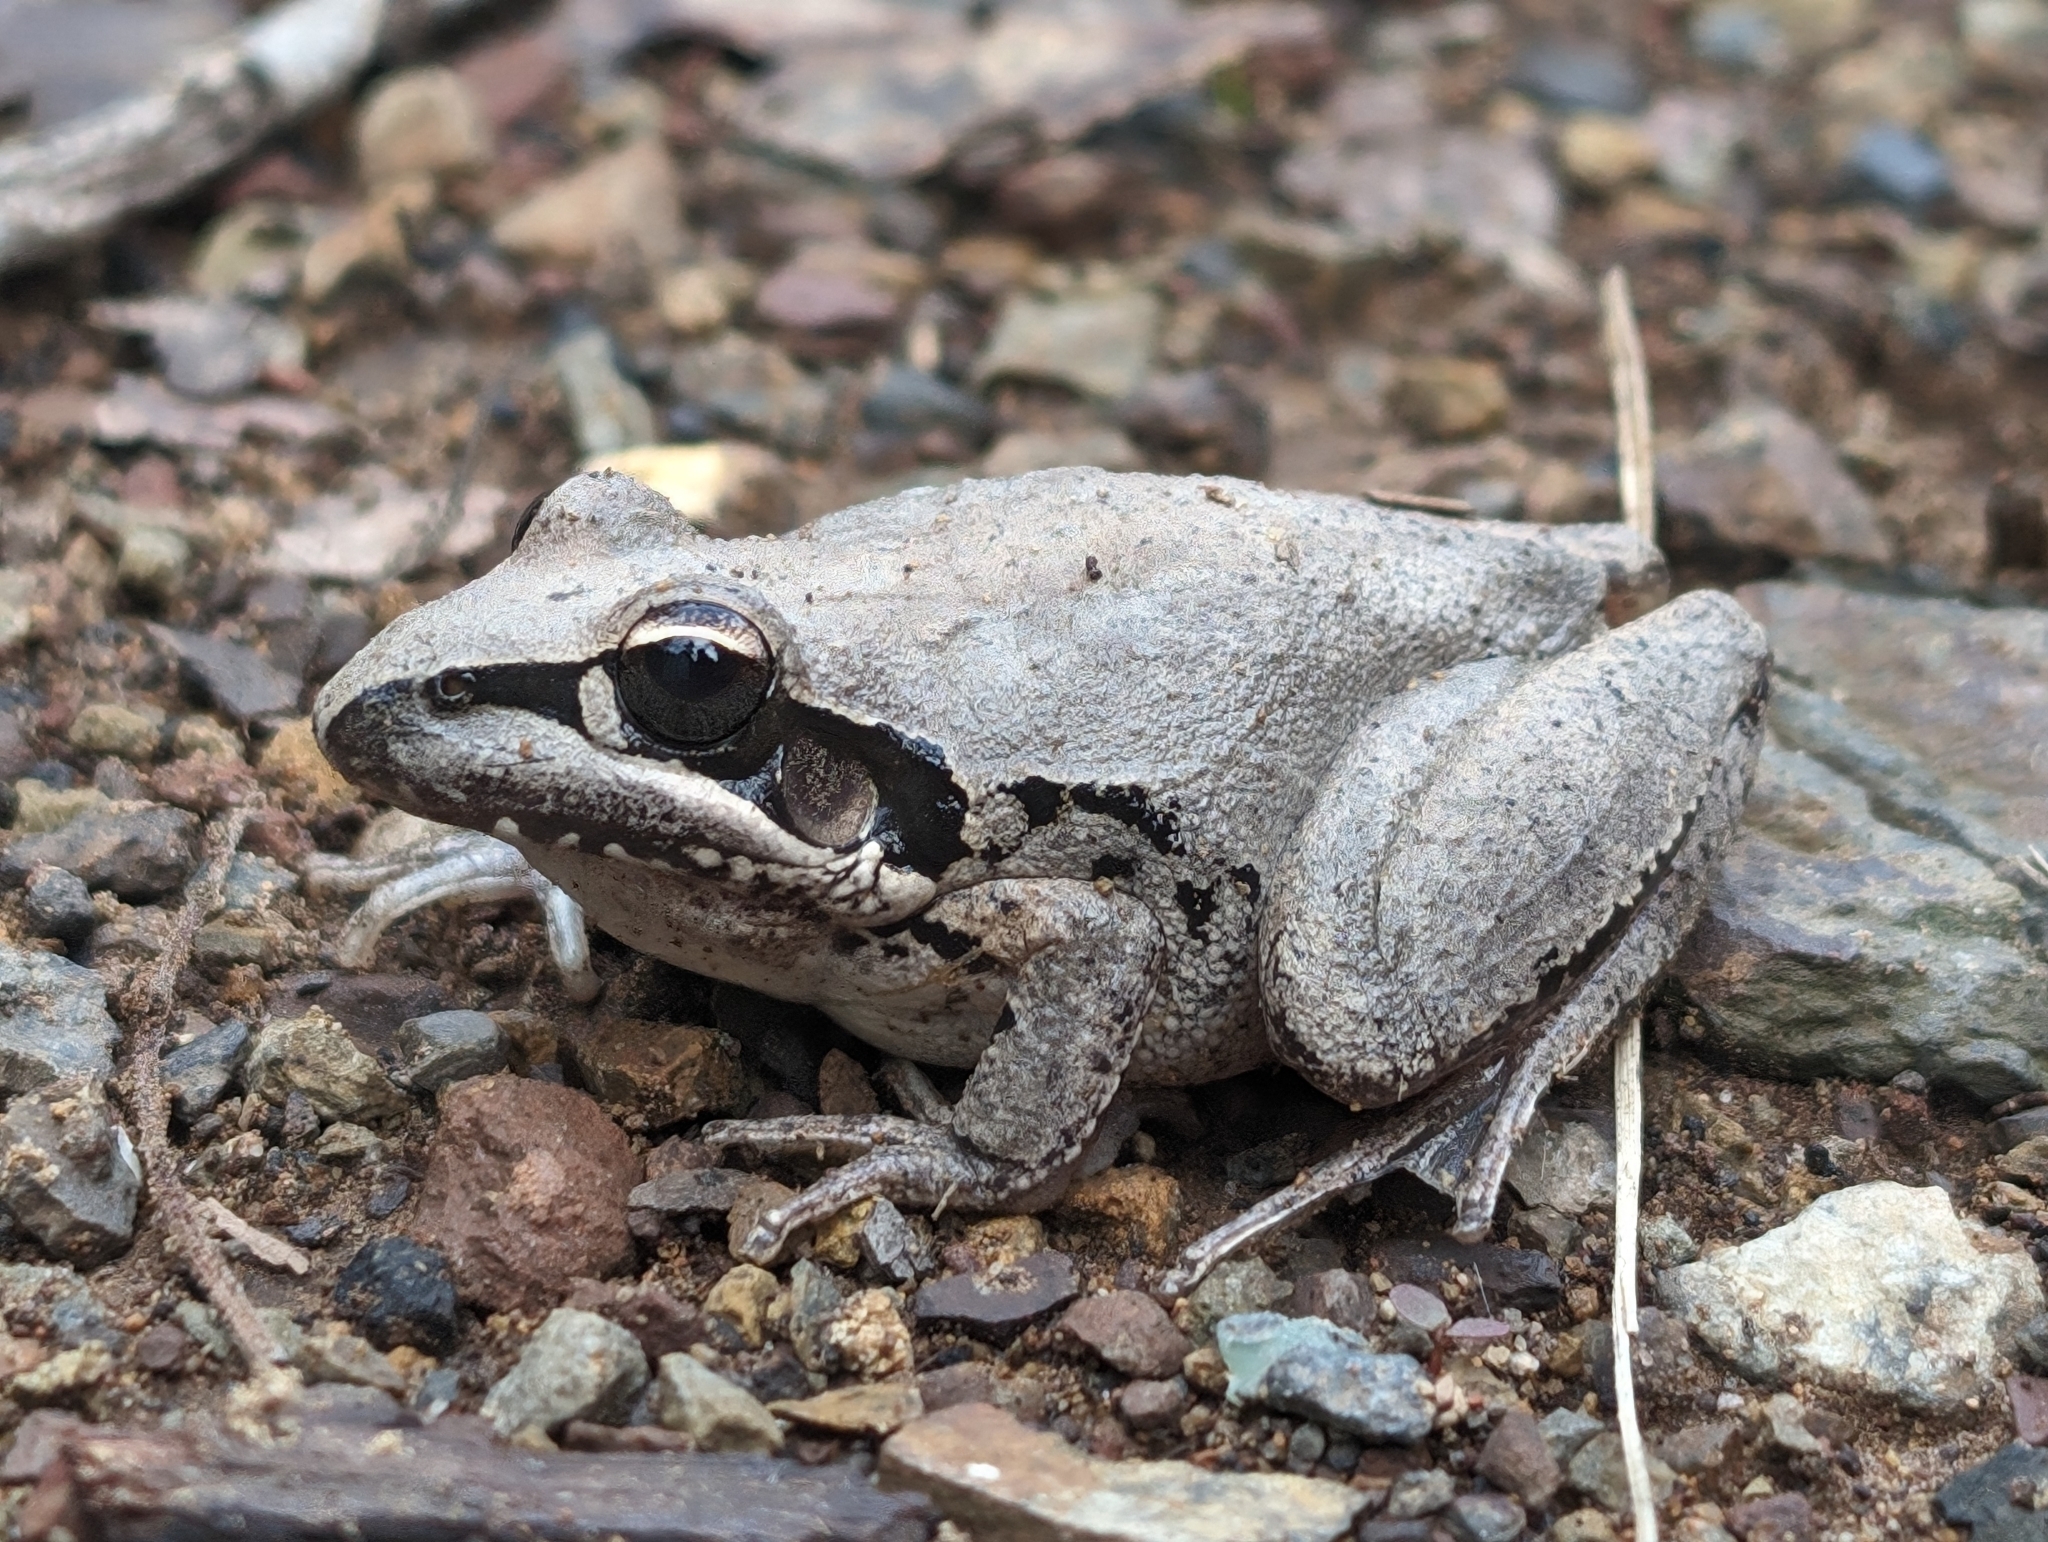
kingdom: Animalia
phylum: Chordata
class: Amphibia
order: Anura
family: Pelodryadidae
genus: Litoria
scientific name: Litoria latopalmata
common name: Broad-palmed rocket frog
